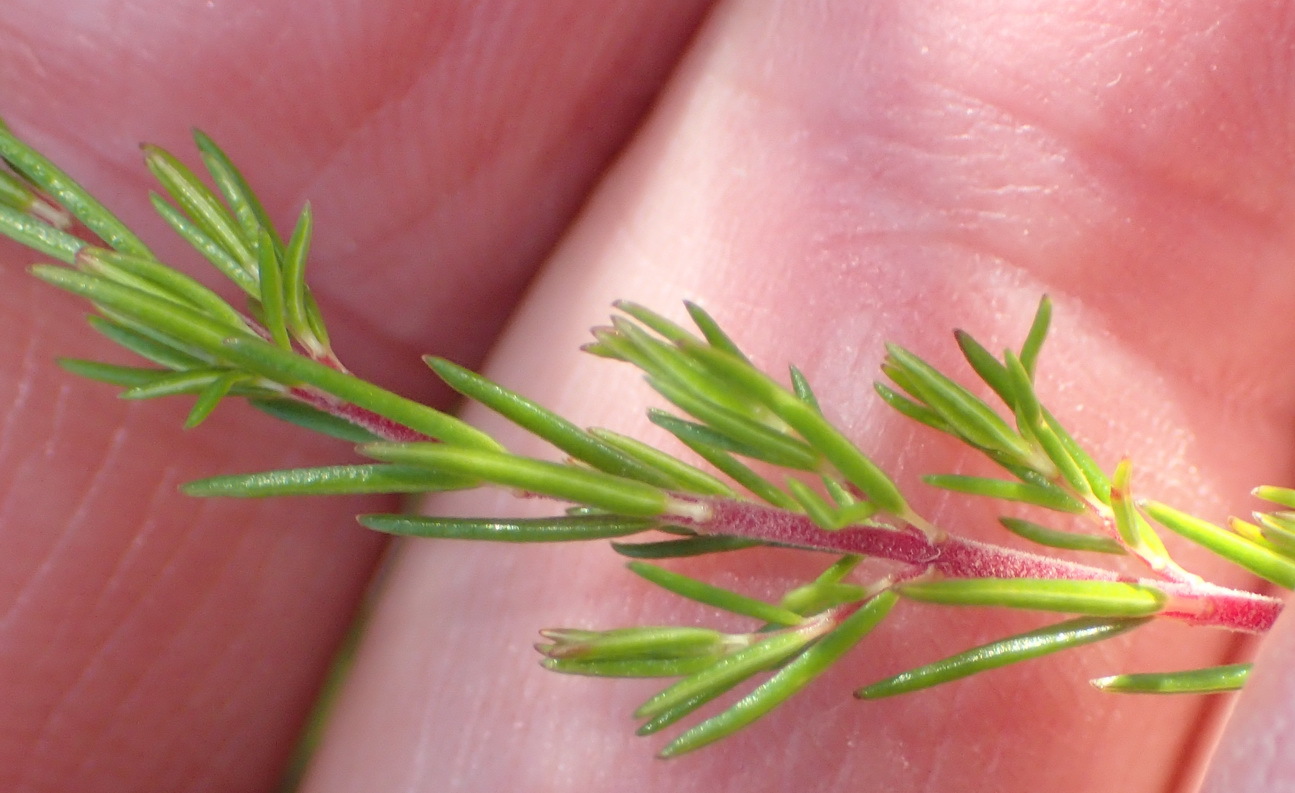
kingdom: Plantae
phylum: Tracheophyta
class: Magnoliopsida
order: Ericales
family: Ericaceae
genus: Erica
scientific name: Erica heliophila
